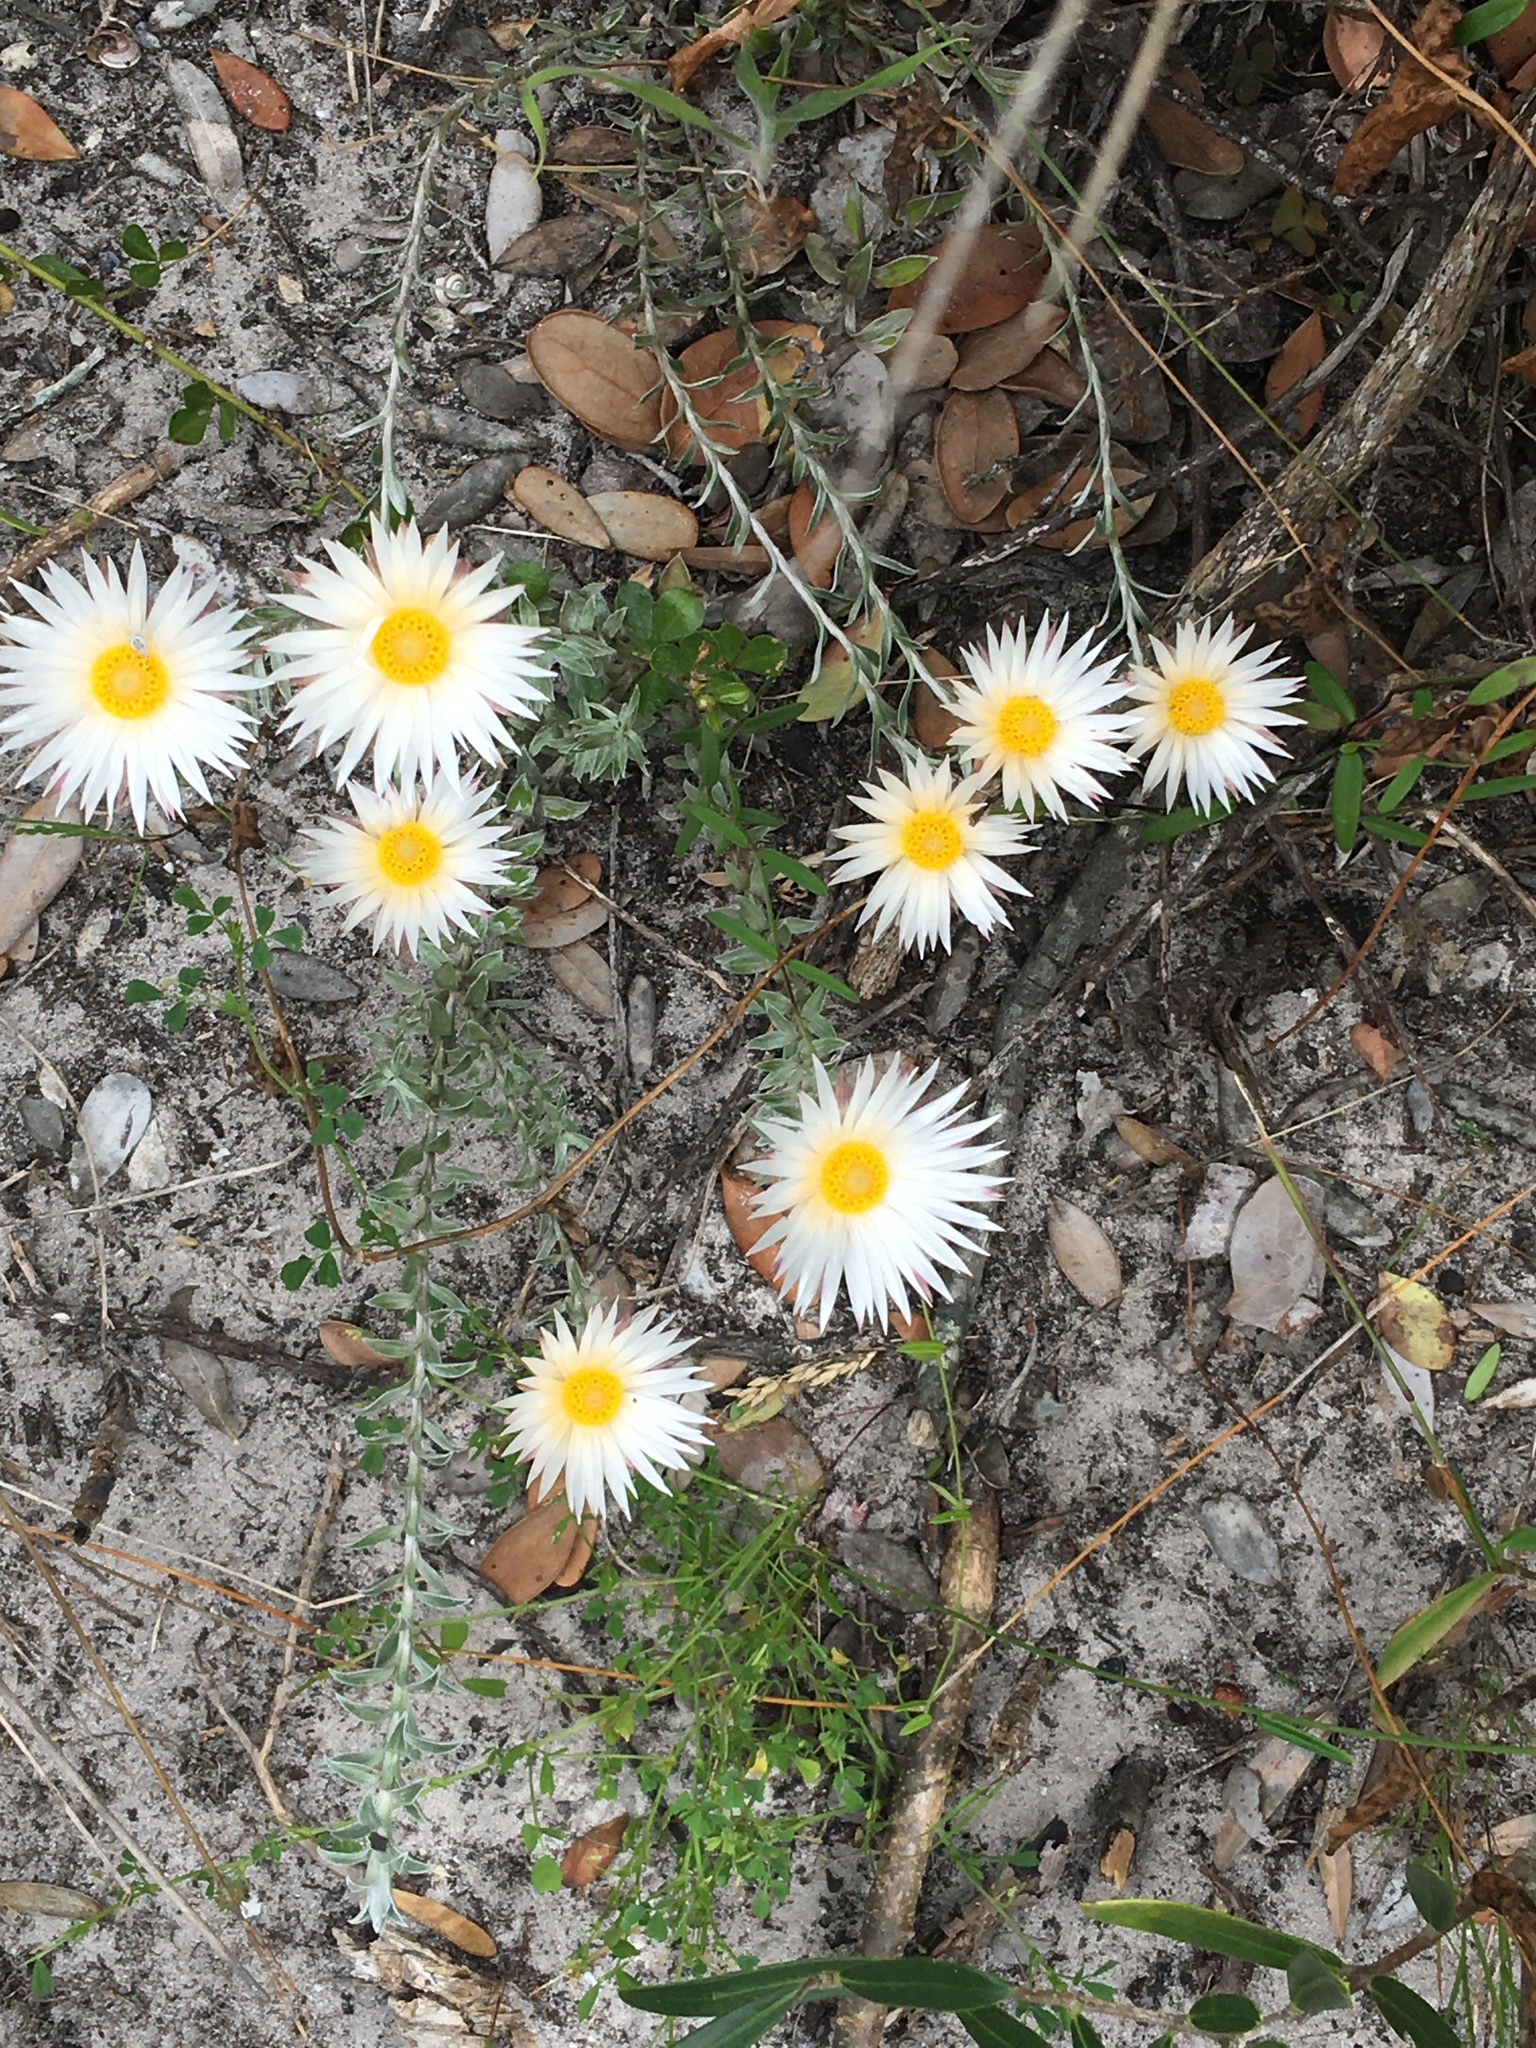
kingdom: Plantae
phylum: Tracheophyta
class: Magnoliopsida
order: Asterales
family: Asteraceae
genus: Helichrysum
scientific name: Helichrysum retortum
